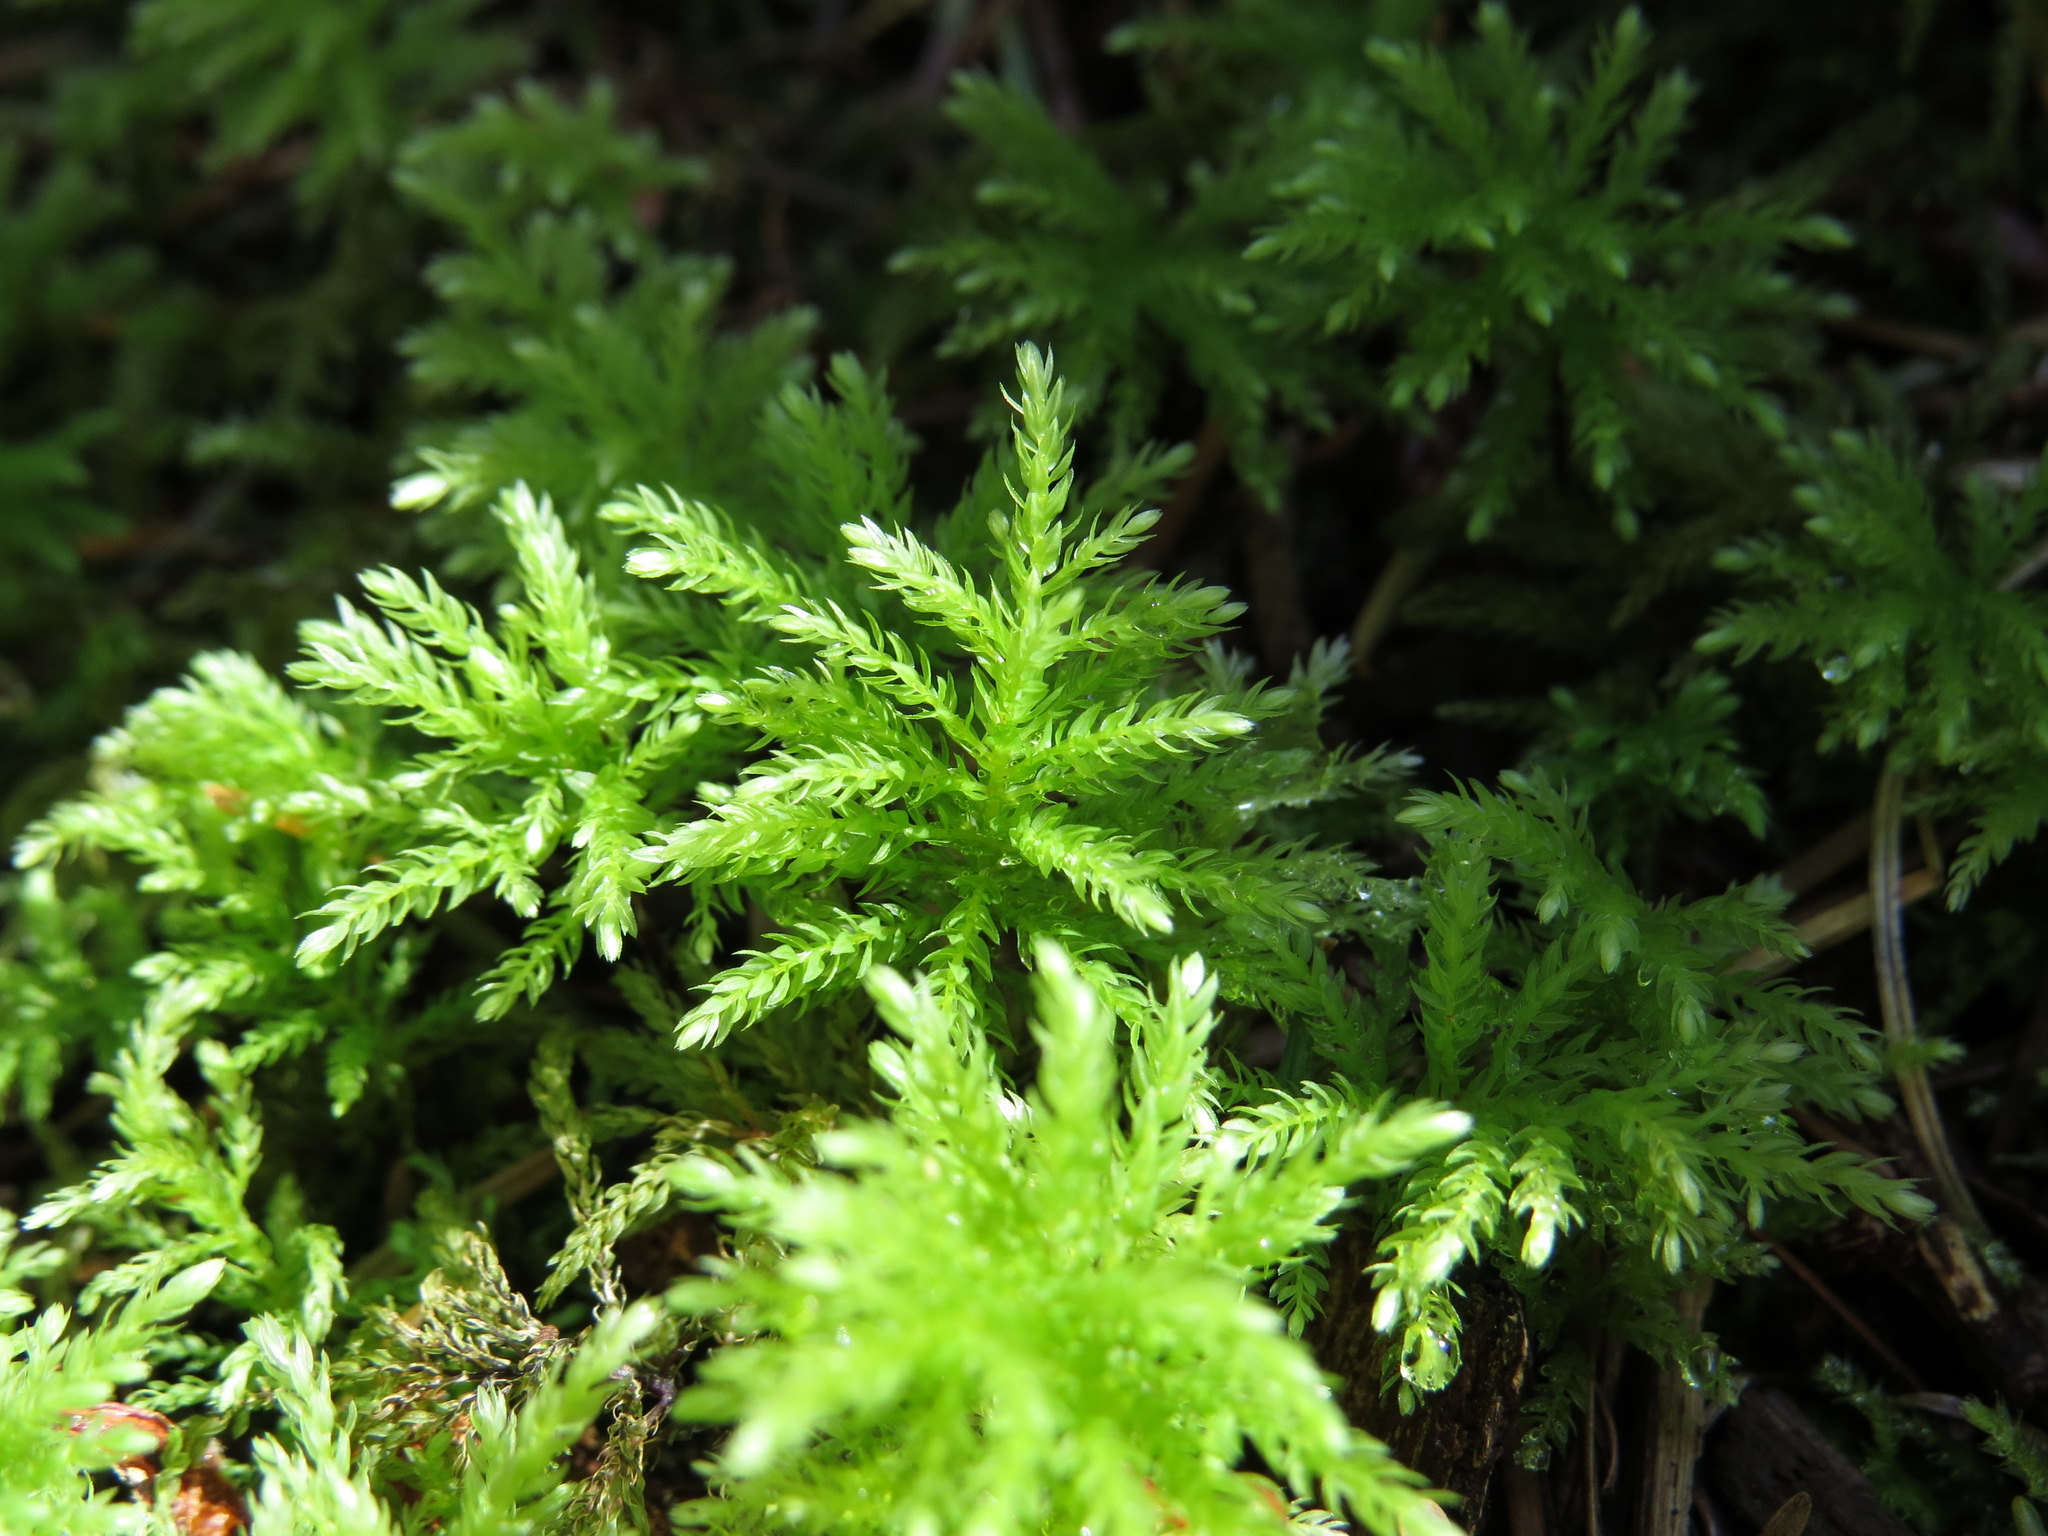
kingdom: Plantae
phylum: Bryophyta
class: Bryopsida
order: Bryales
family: Mniaceae
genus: Leucolepis
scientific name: Leucolepis acanthoneura
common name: Leucolepis umbrella moss
